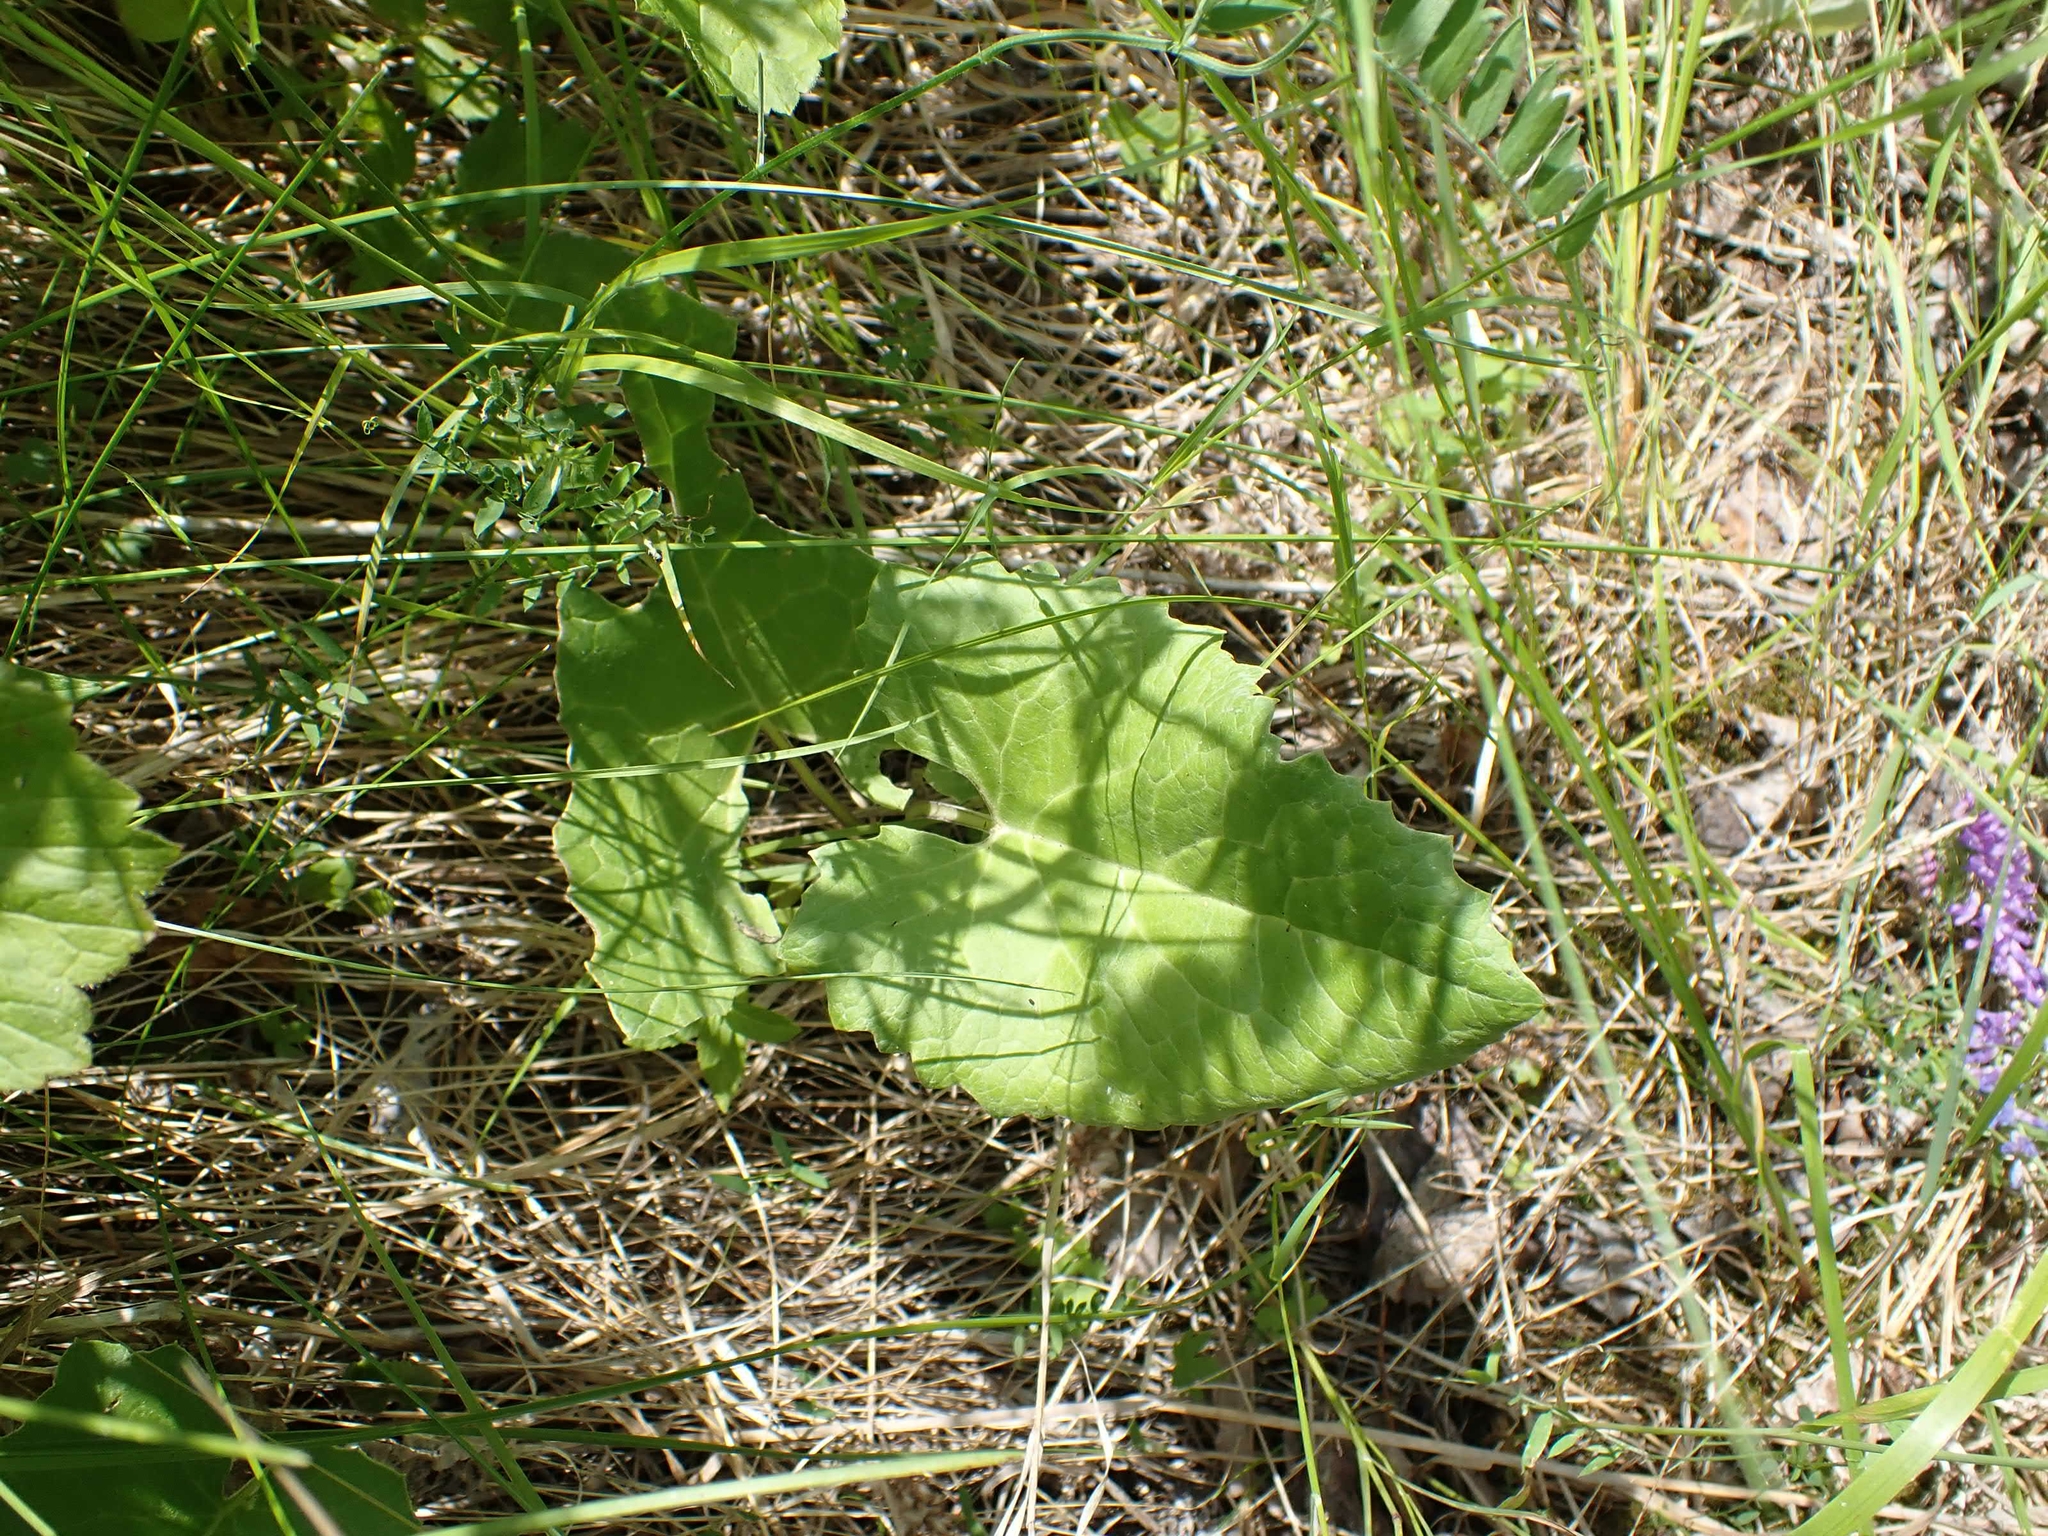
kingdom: Plantae
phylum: Tracheophyta
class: Magnoliopsida
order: Asterales
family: Asteraceae
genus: Petasites
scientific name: Petasites frigidus
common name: Arctic butterbur
